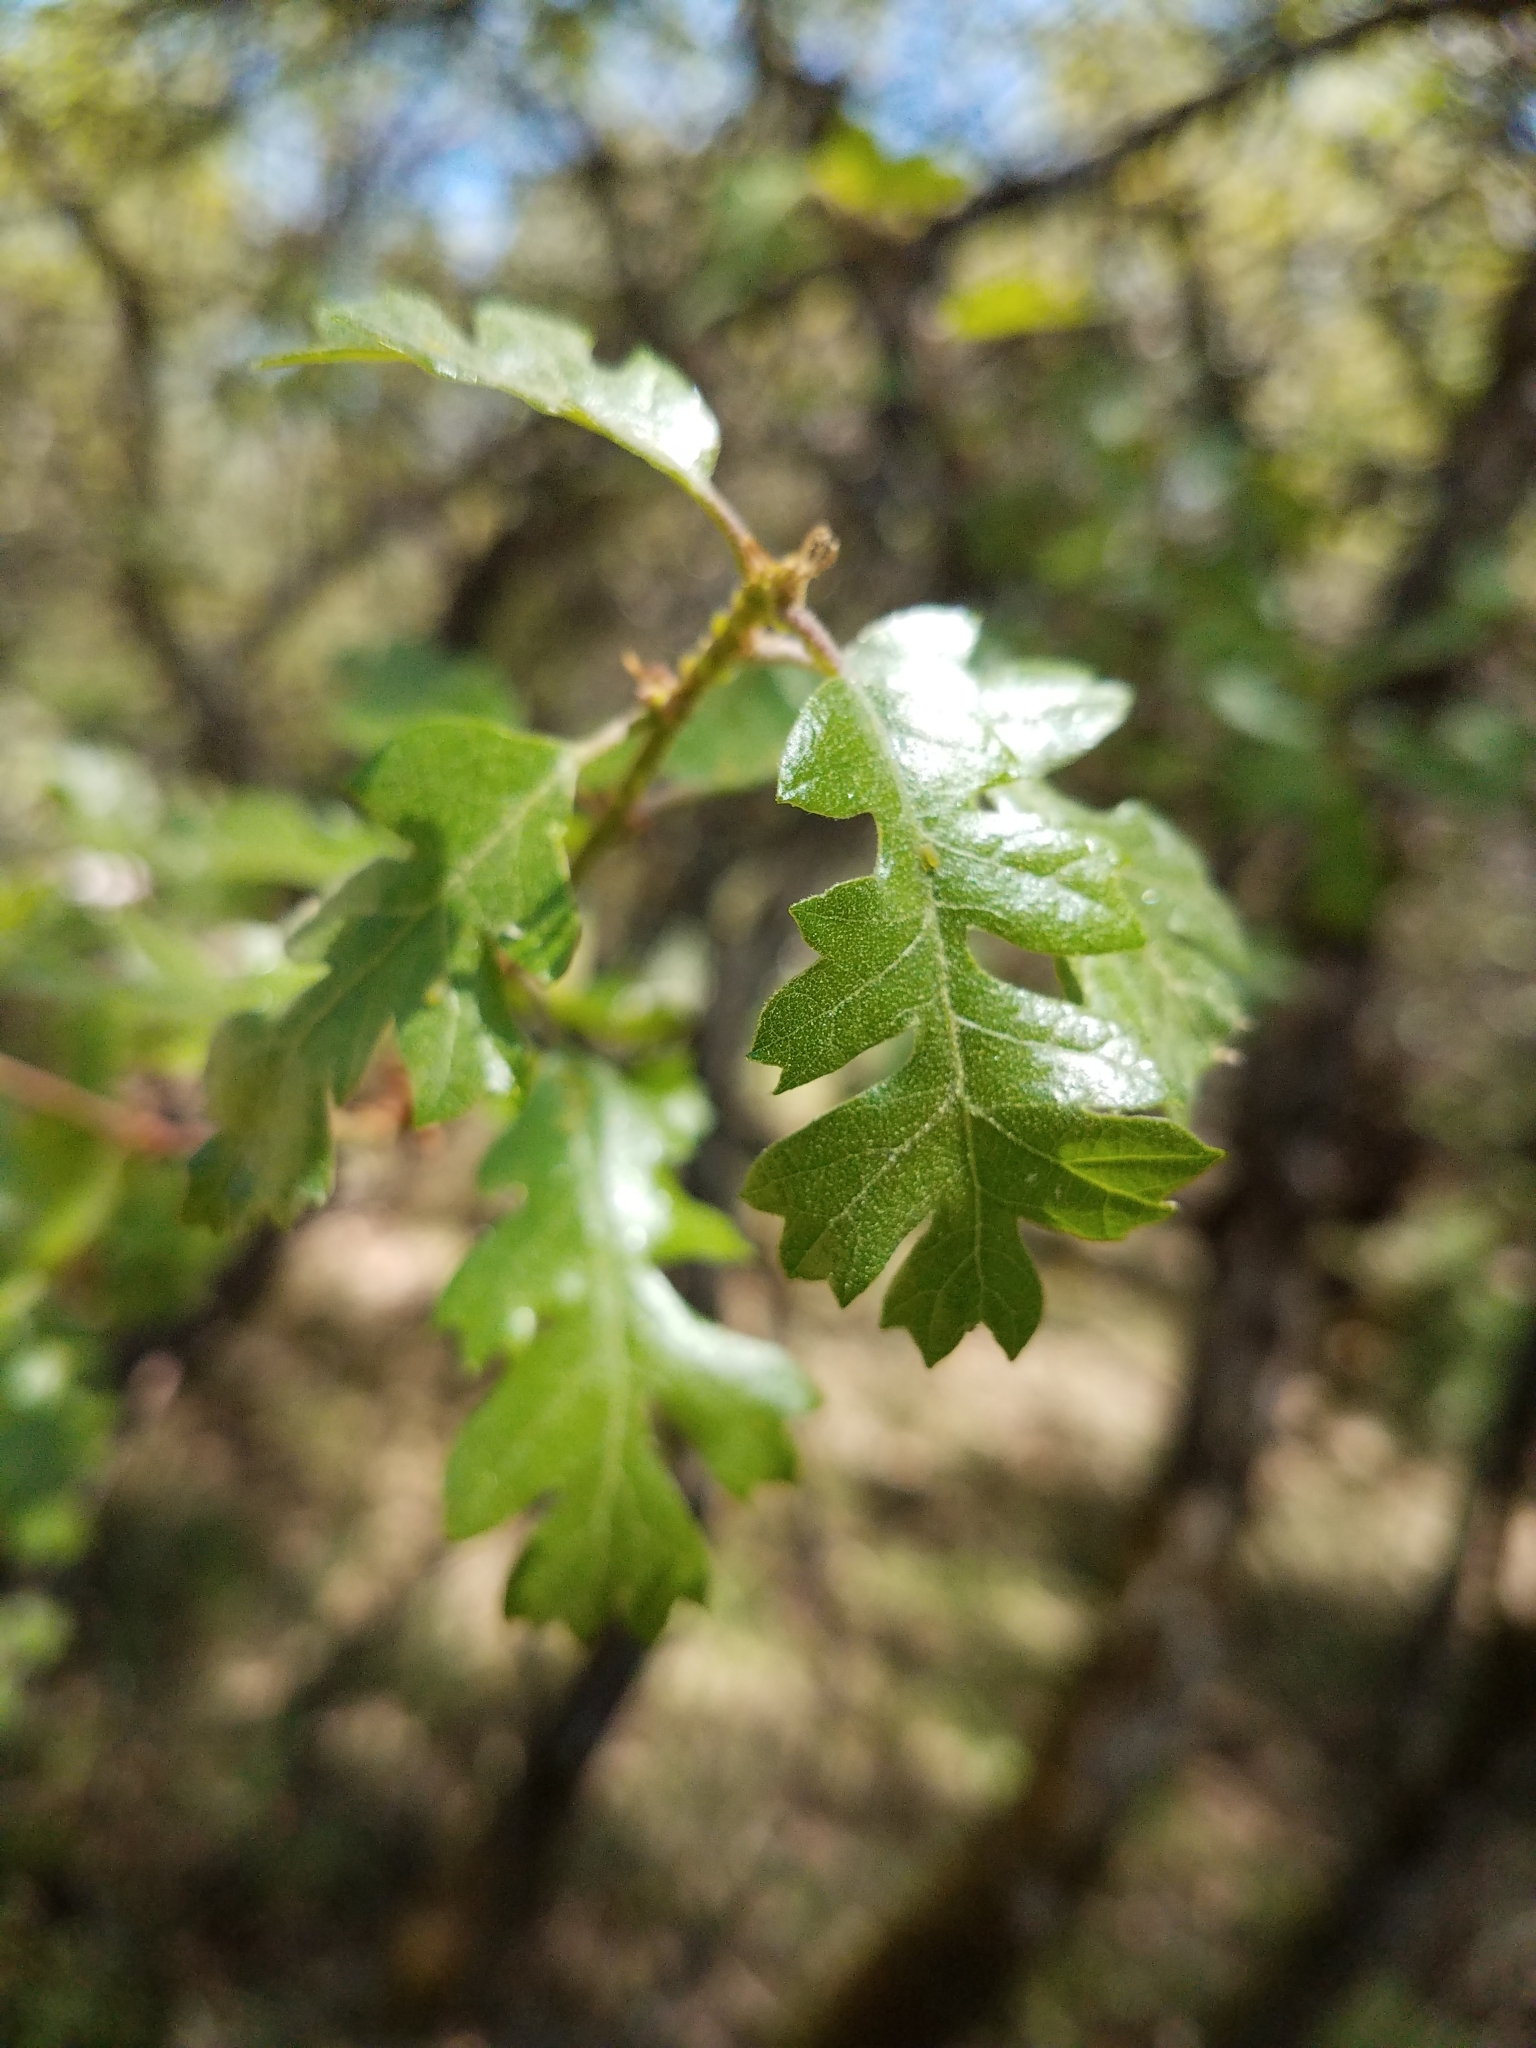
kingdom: Plantae
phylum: Tracheophyta
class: Magnoliopsida
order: Fagales
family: Fagaceae
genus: Quercus
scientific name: Quercus lobata
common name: Valley oak
